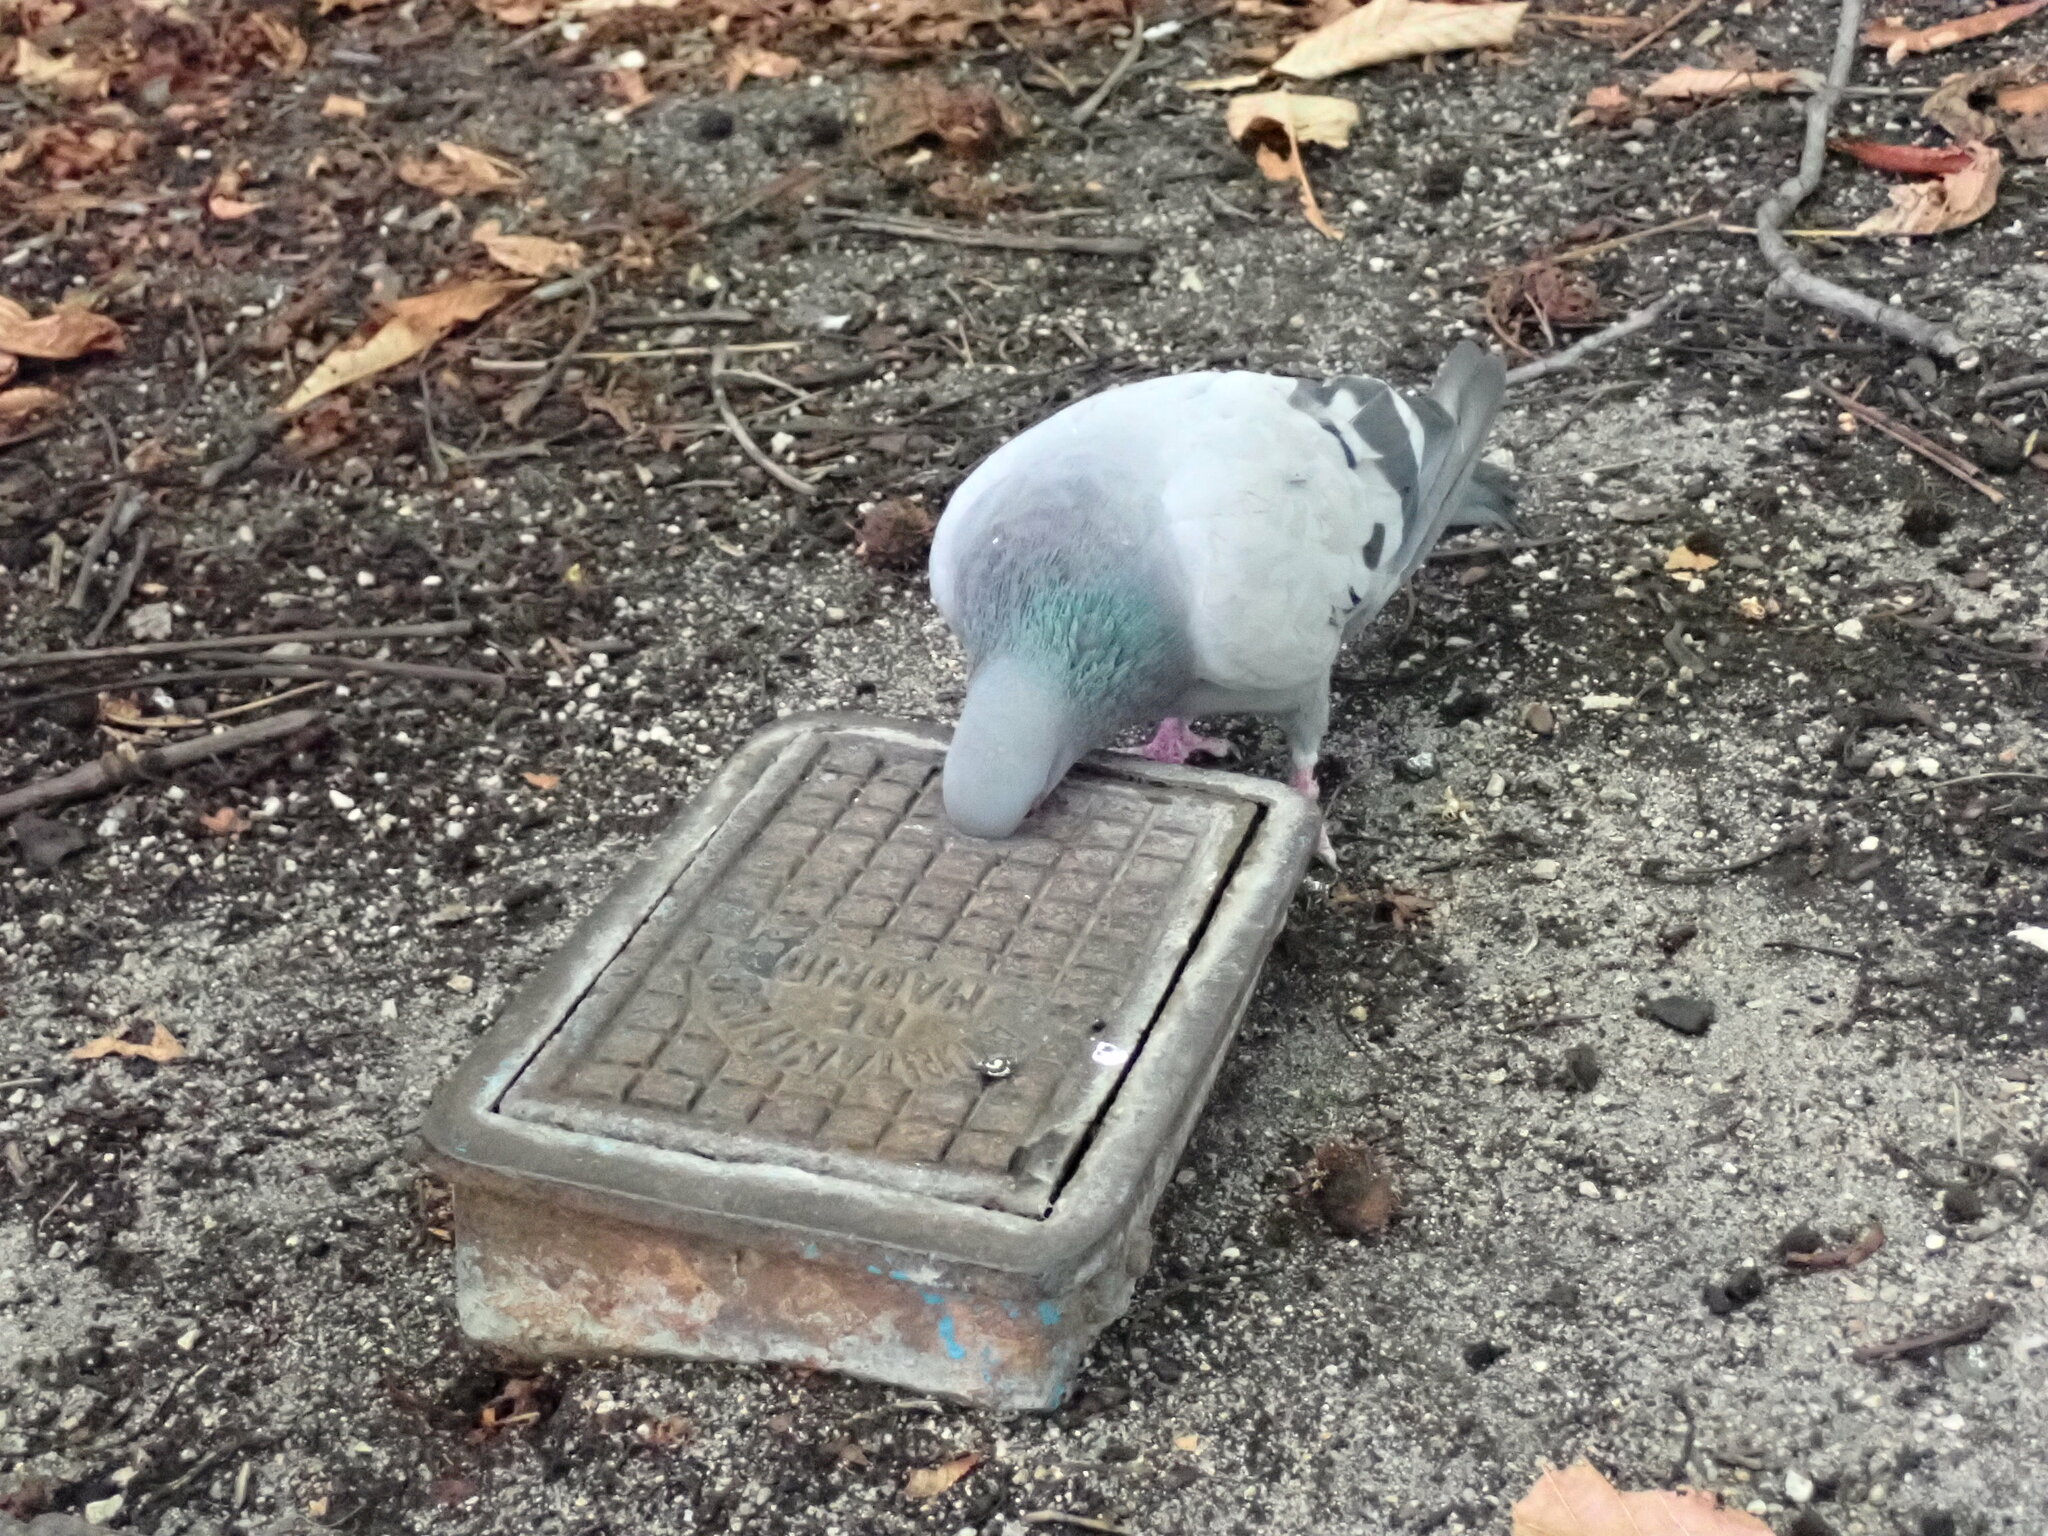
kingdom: Animalia
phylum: Chordata
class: Aves
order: Columbiformes
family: Columbidae
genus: Columba
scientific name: Columba livia
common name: Rock pigeon
